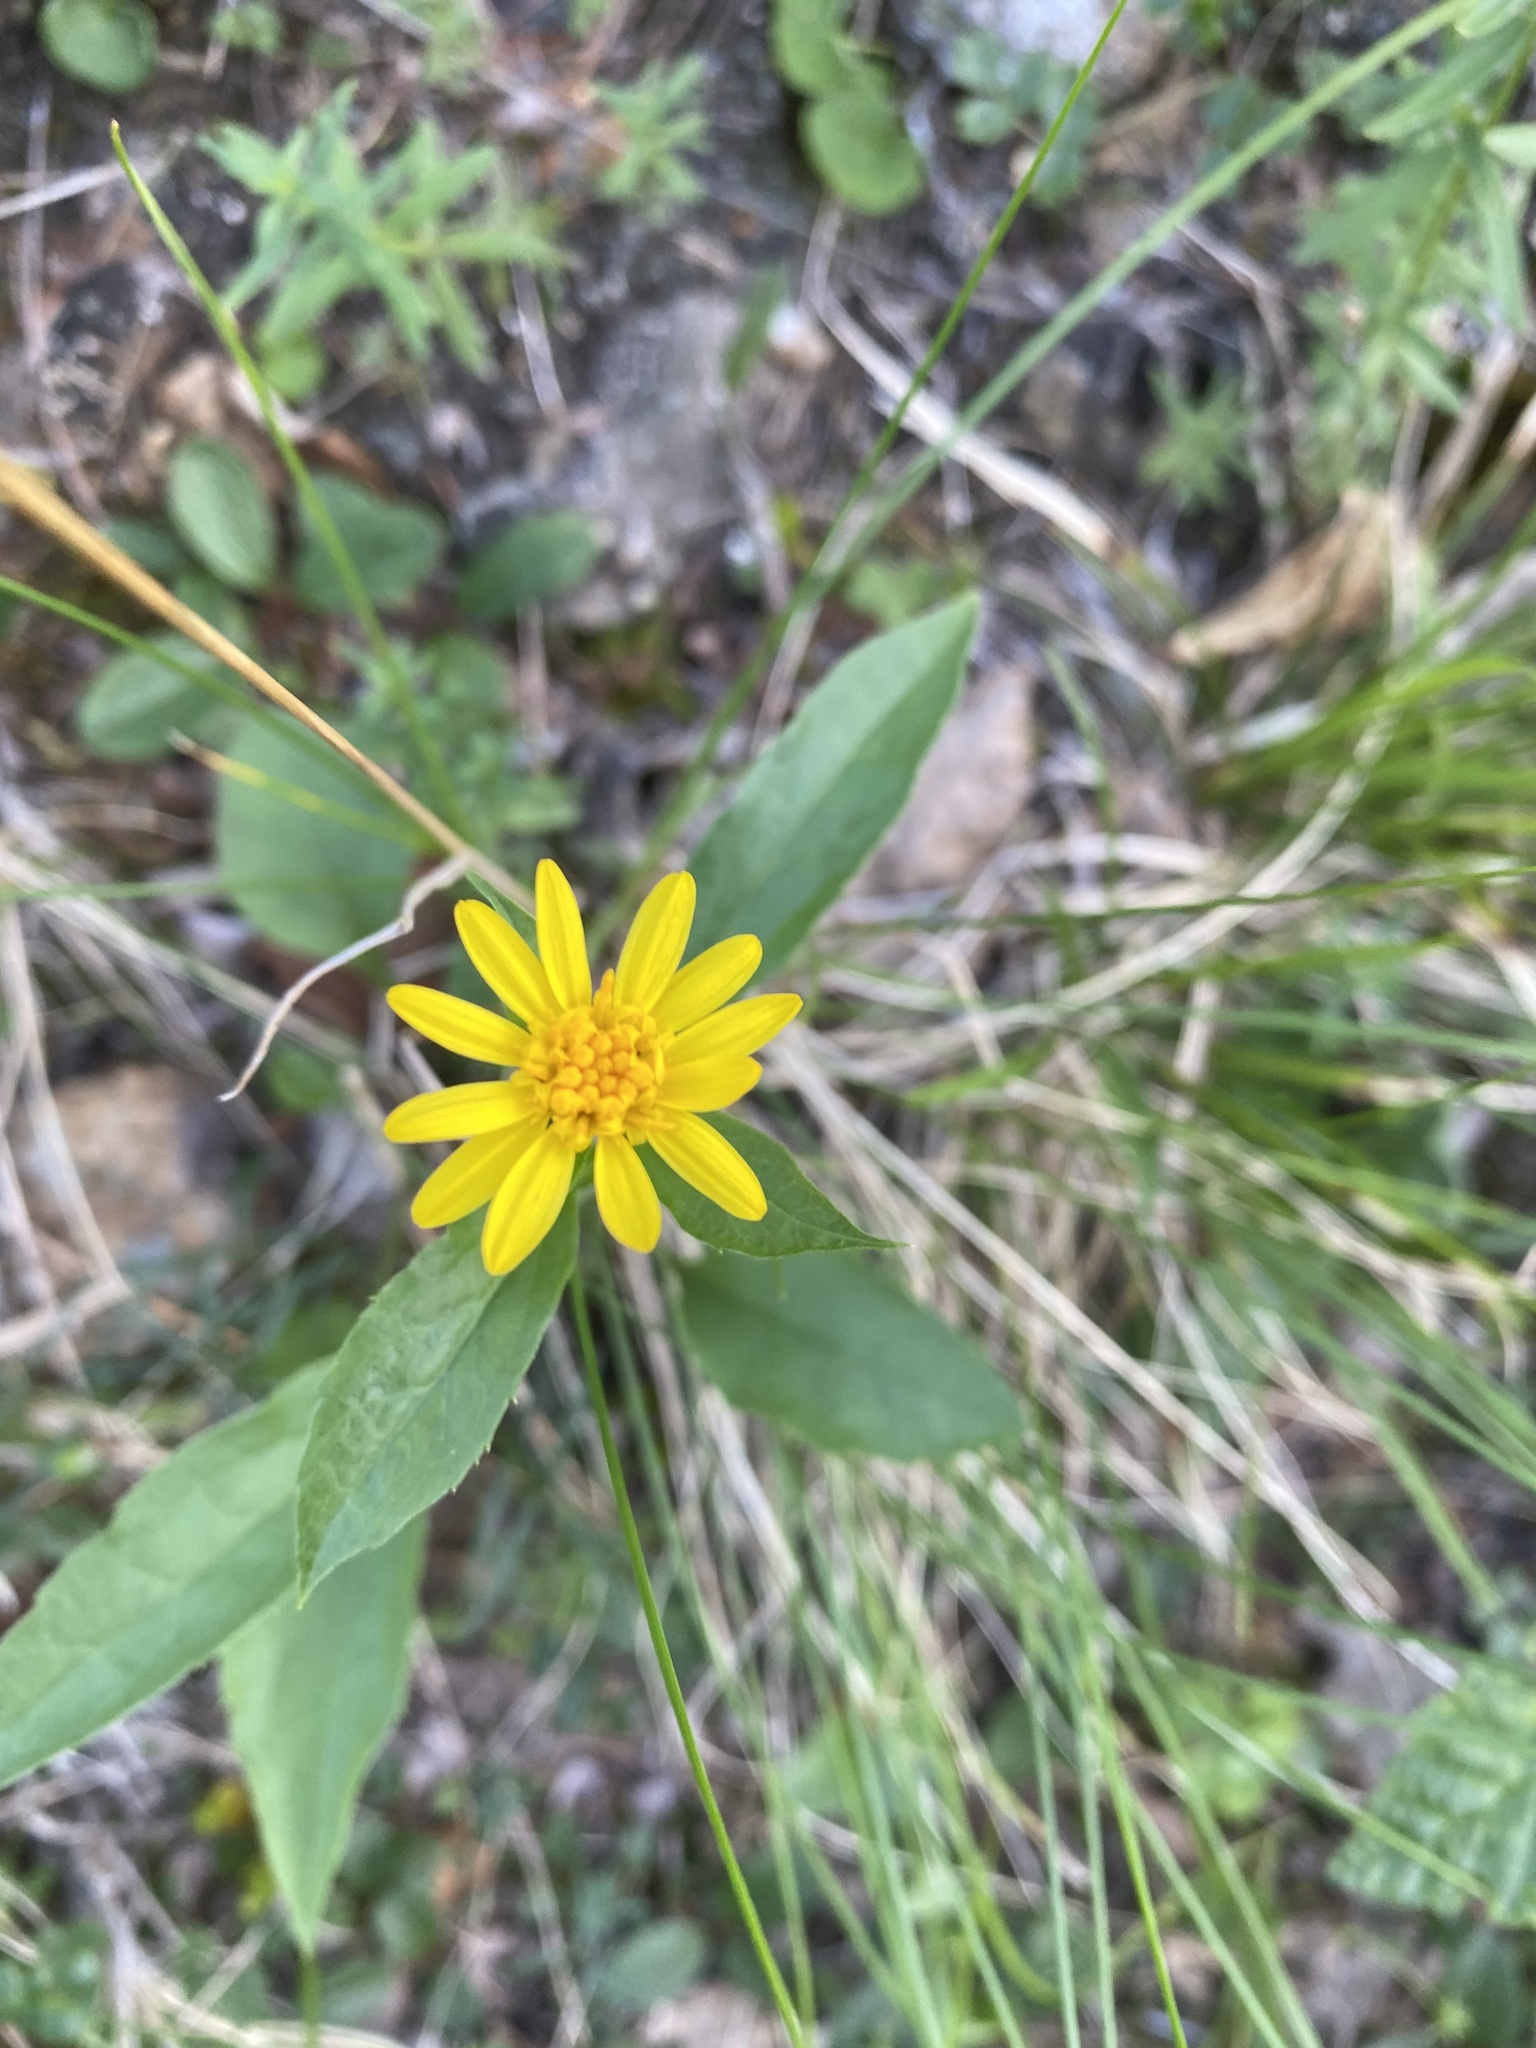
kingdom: Plantae
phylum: Tracheophyta
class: Magnoliopsida
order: Asterales
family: Asteraceae
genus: Solidago
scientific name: Solidago dahurica
